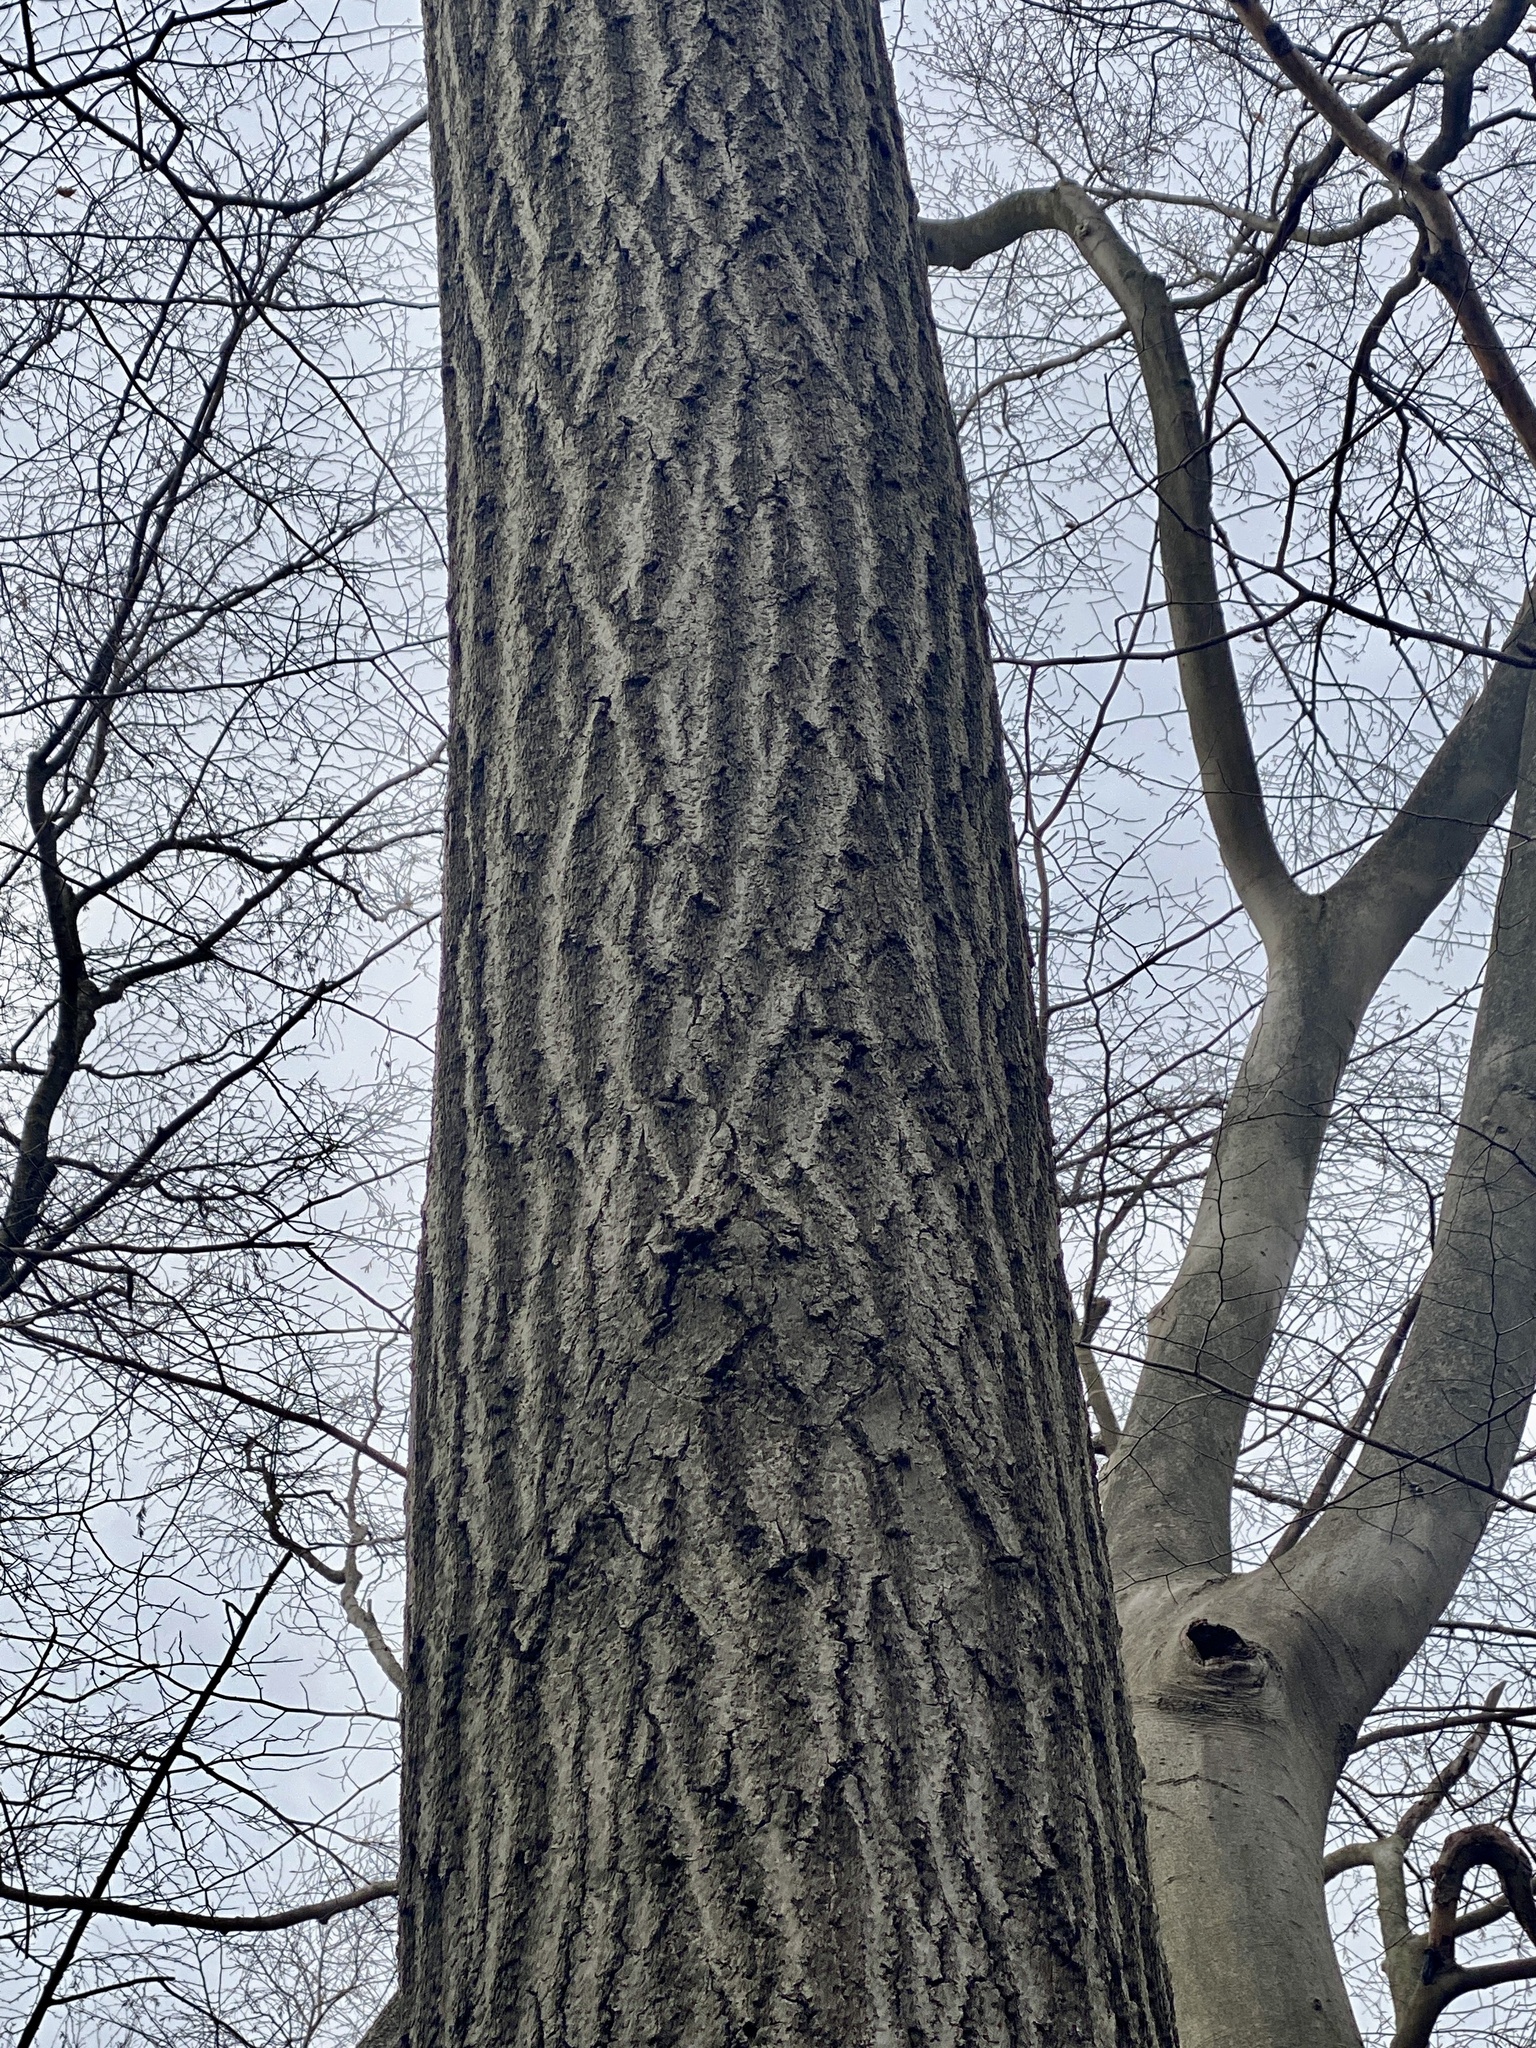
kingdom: Plantae
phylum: Tracheophyta
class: Magnoliopsida
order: Fagales
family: Fagaceae
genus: Quercus
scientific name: Quercus rubra
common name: Red oak
